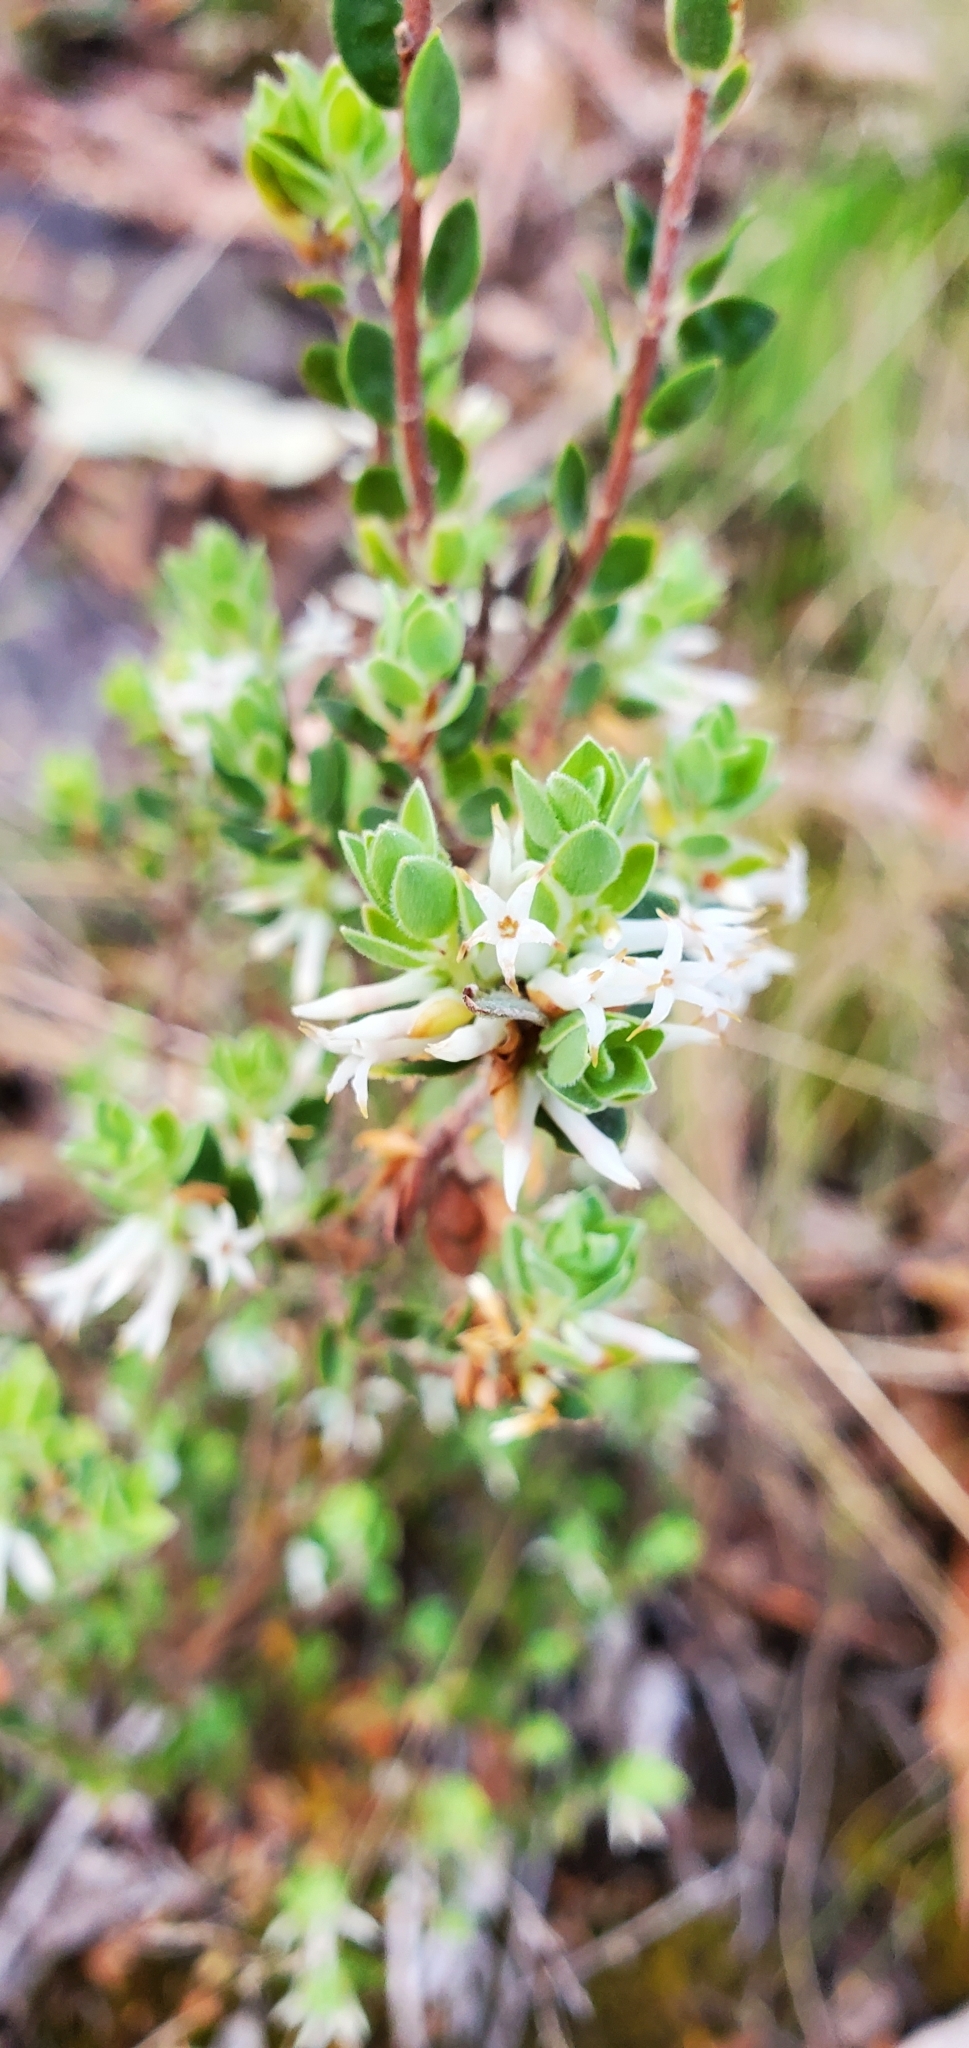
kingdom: Plantae
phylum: Tracheophyta
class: Magnoliopsida
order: Ericales
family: Ericaceae
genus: Brachyloma
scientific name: Brachyloma daphnoides
